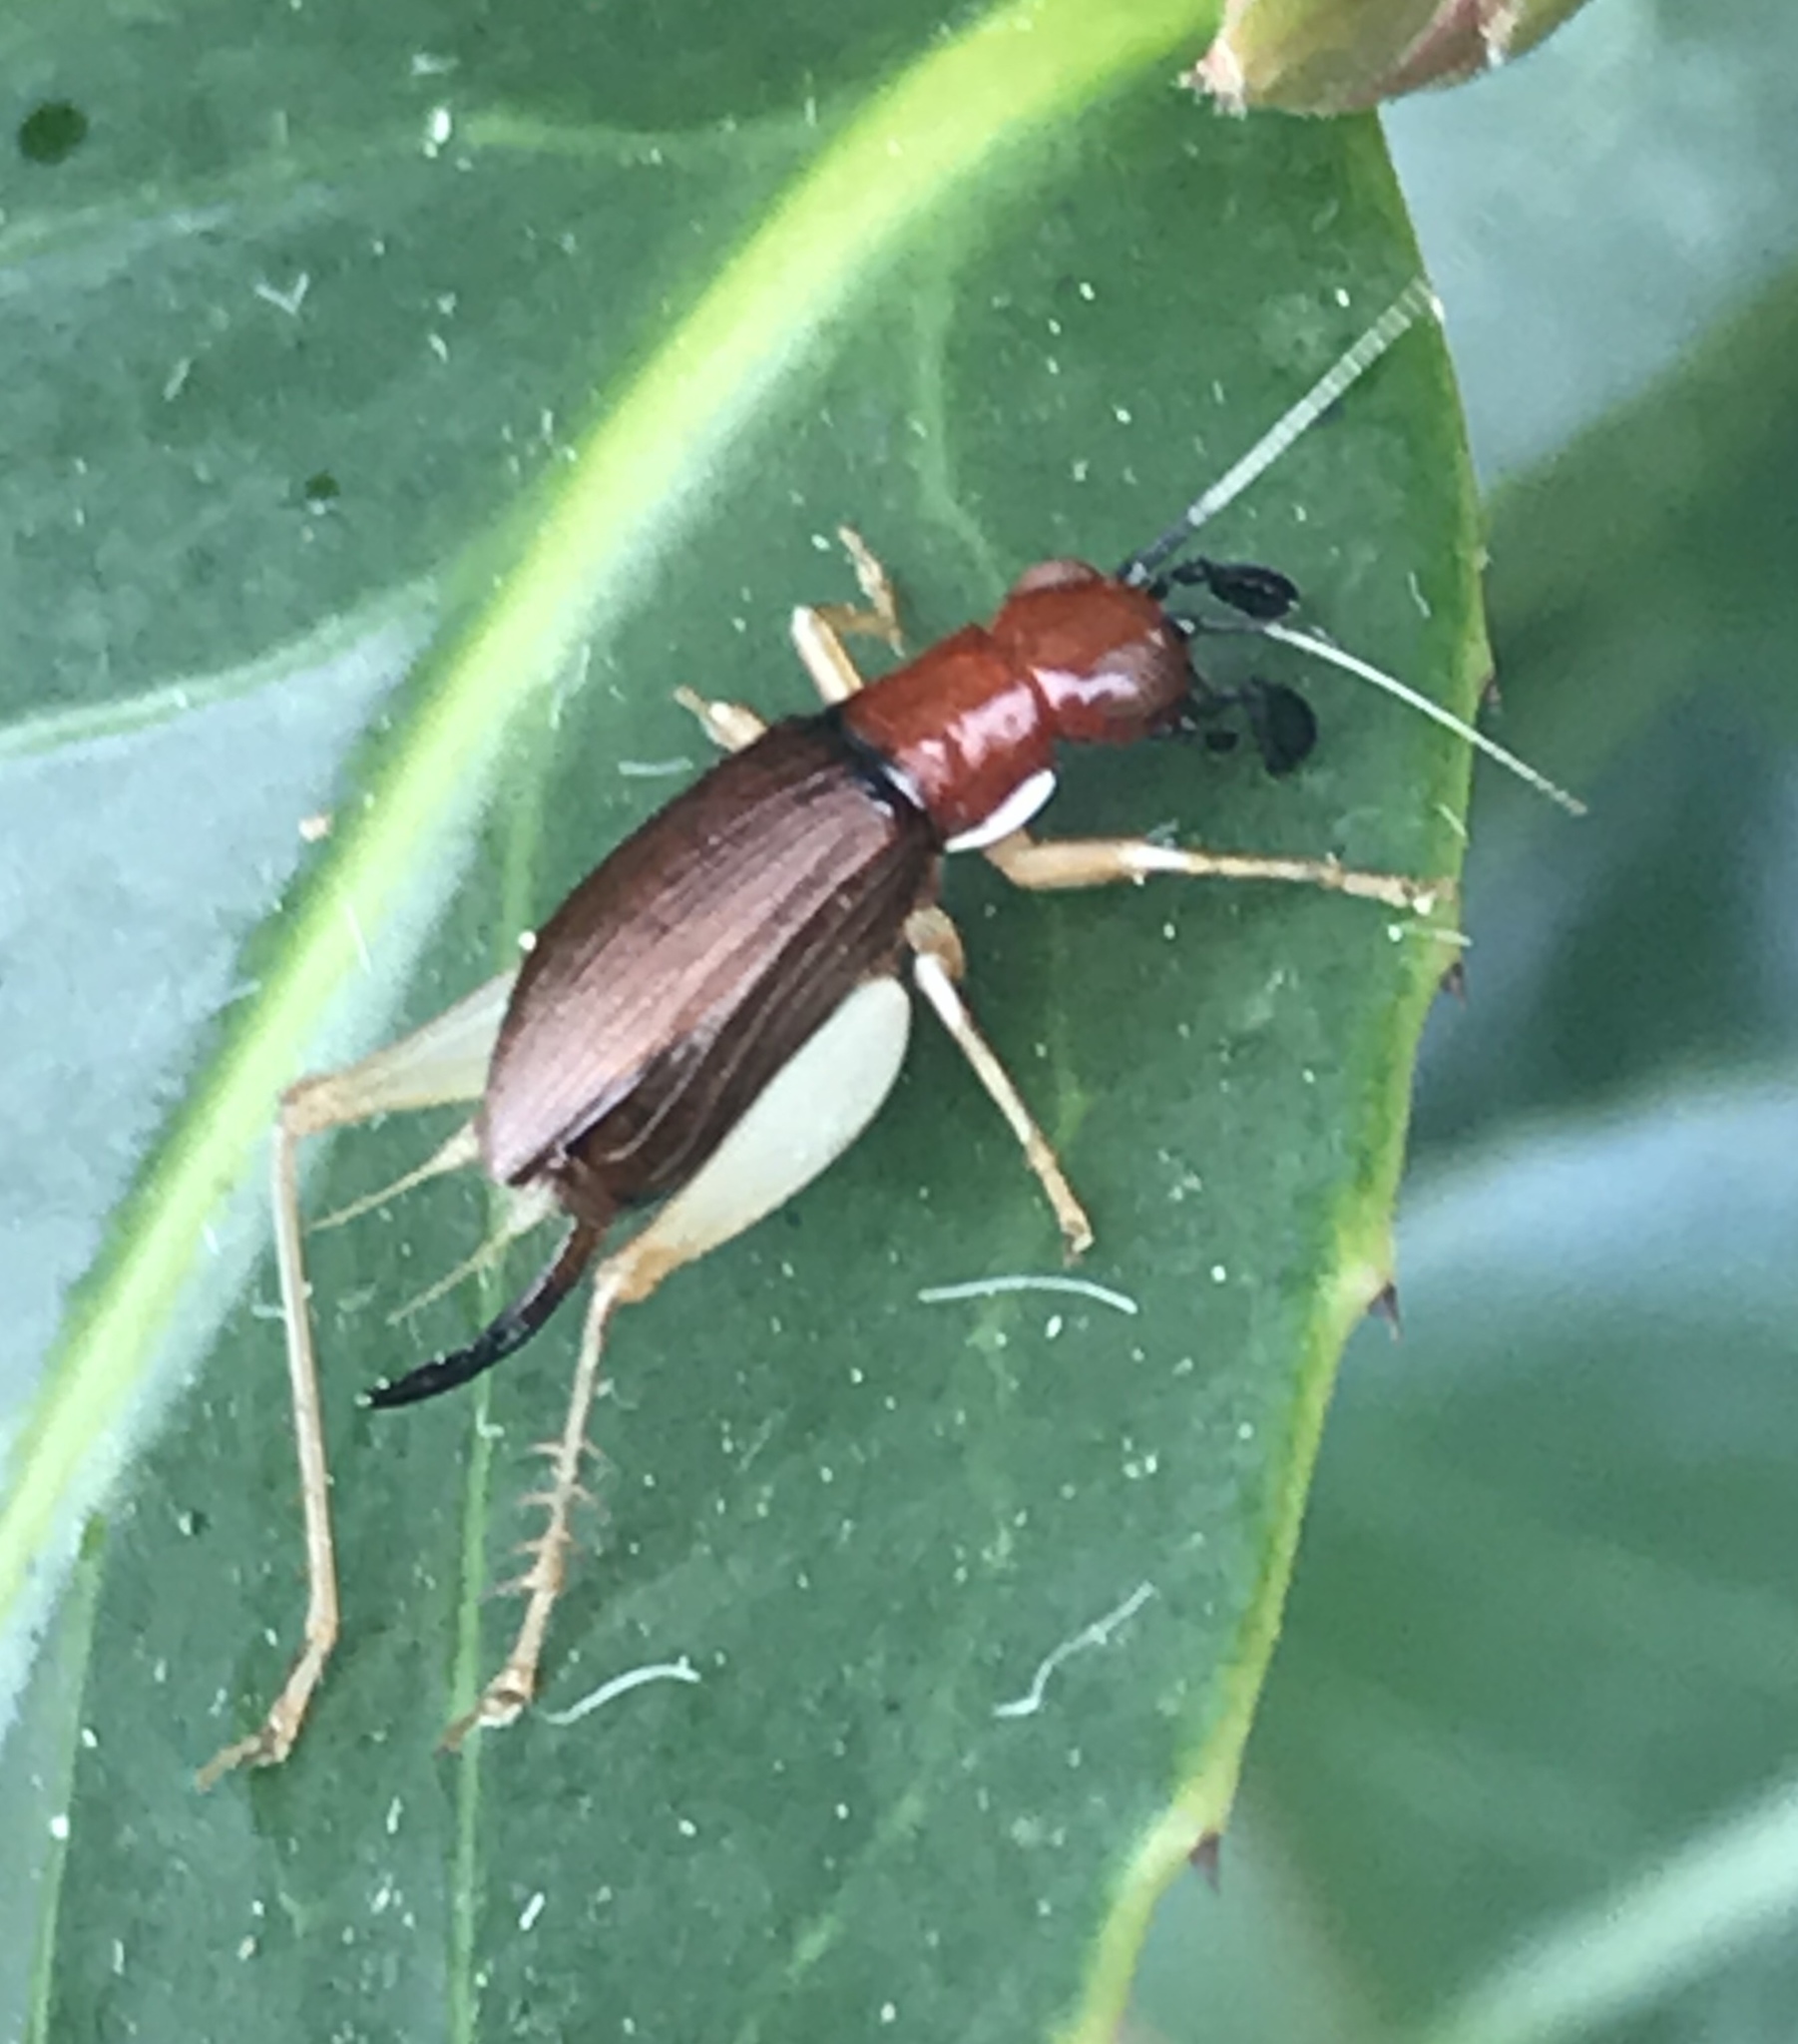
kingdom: Animalia
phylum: Arthropoda
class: Insecta
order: Orthoptera
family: Trigonidiidae
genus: Phyllopalpus
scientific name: Phyllopalpus pulchellus
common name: Handsome trig
